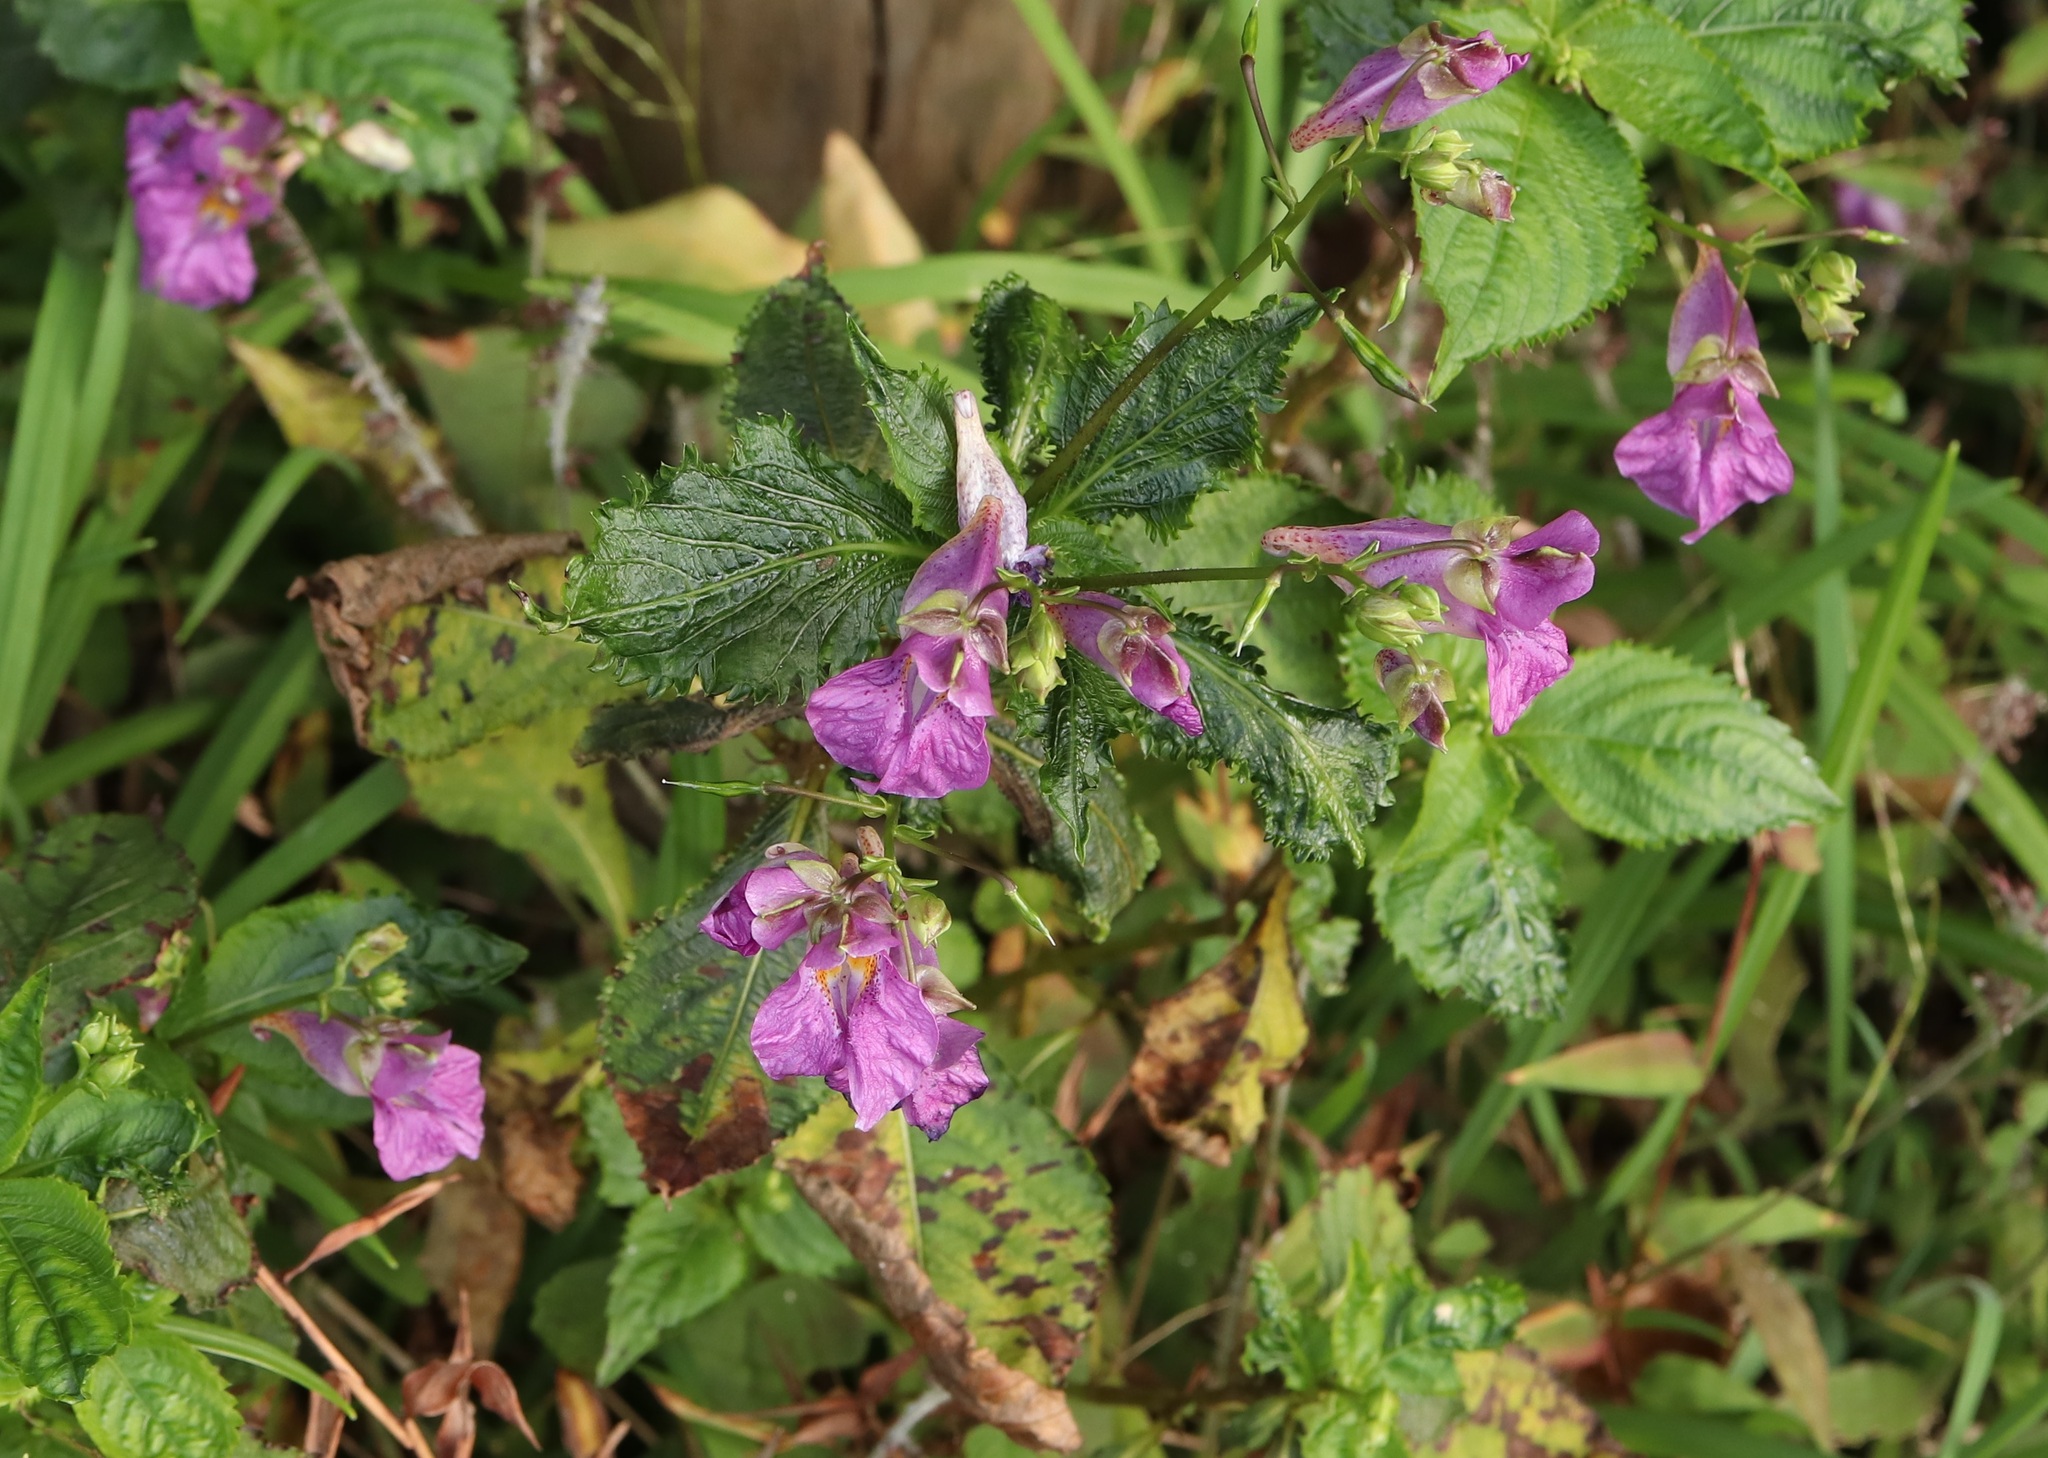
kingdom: Plantae
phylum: Tracheophyta
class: Magnoliopsida
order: Ericales
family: Balsaminaceae
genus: Impatiens
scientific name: Impatiens textorii
